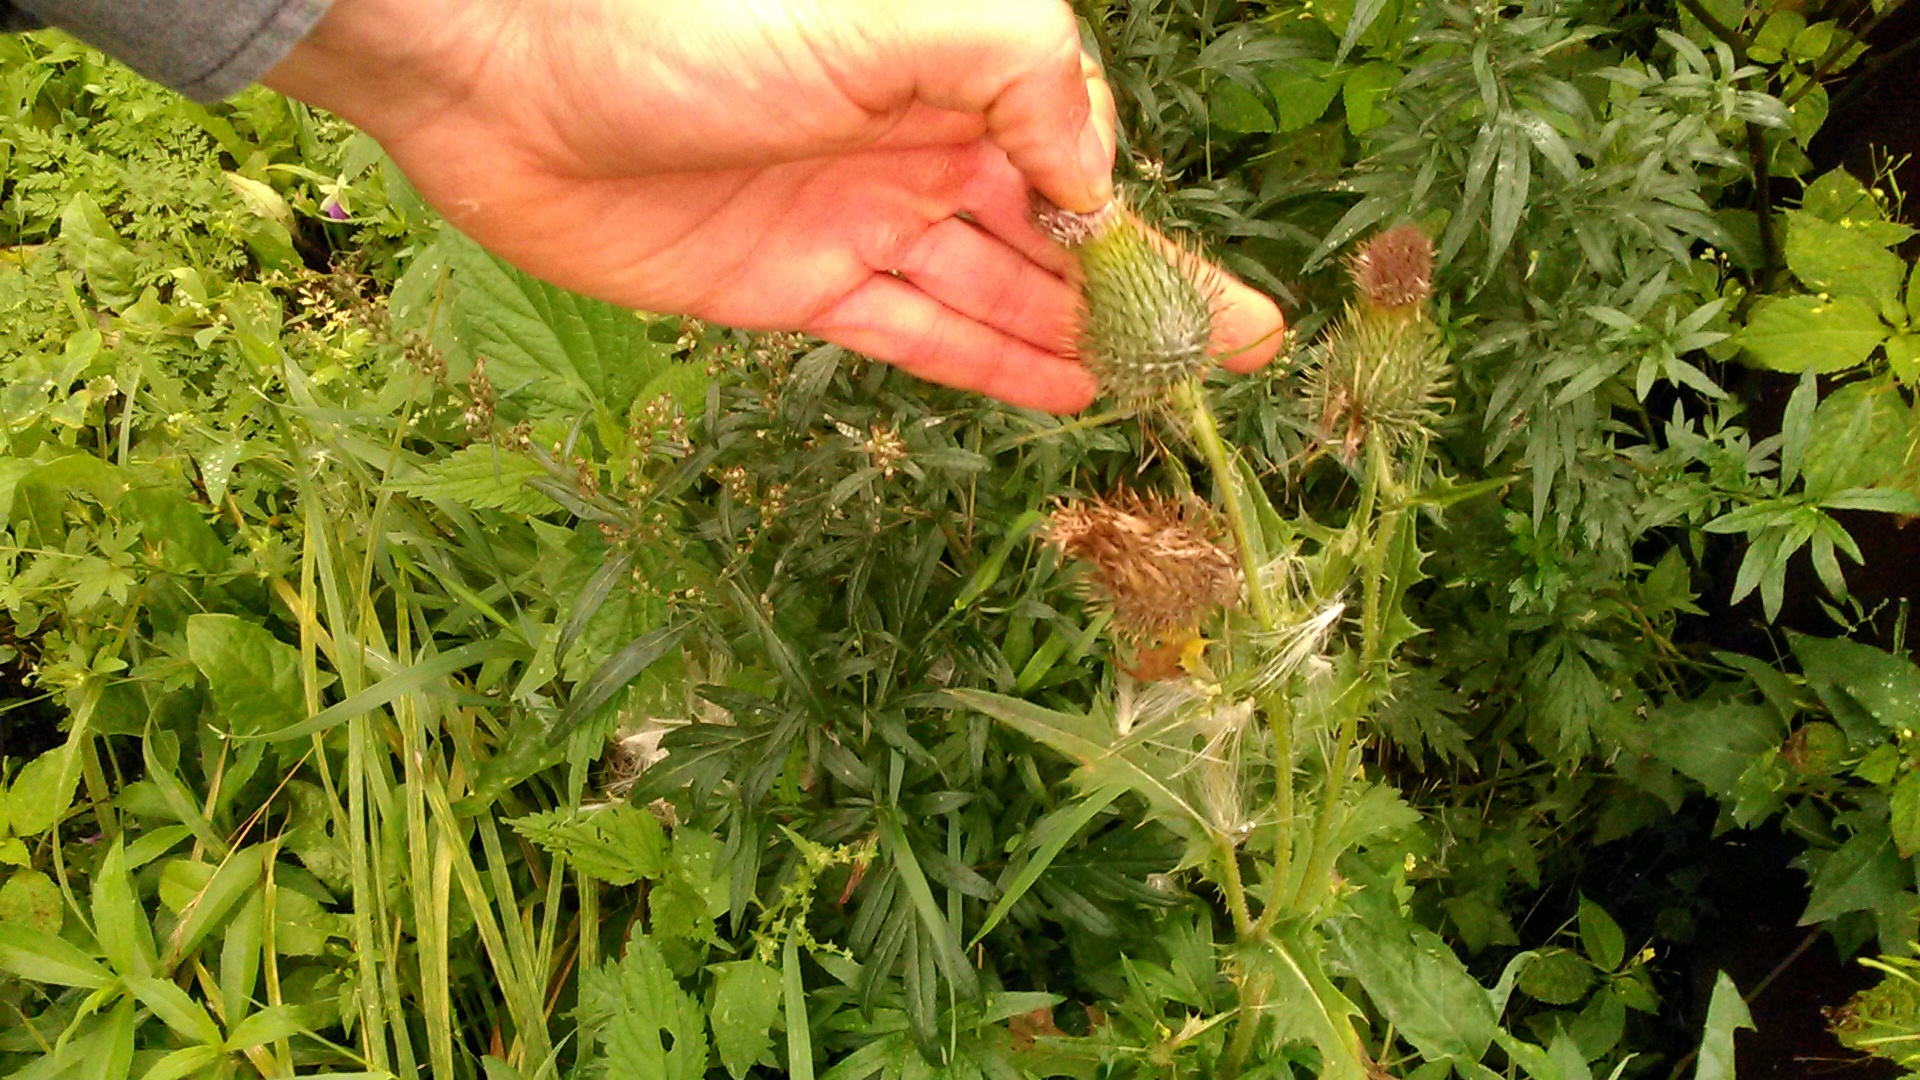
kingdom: Plantae
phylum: Tracheophyta
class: Magnoliopsida
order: Asterales
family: Asteraceae
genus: Cirsium
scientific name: Cirsium vulgare
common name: Bull thistle
